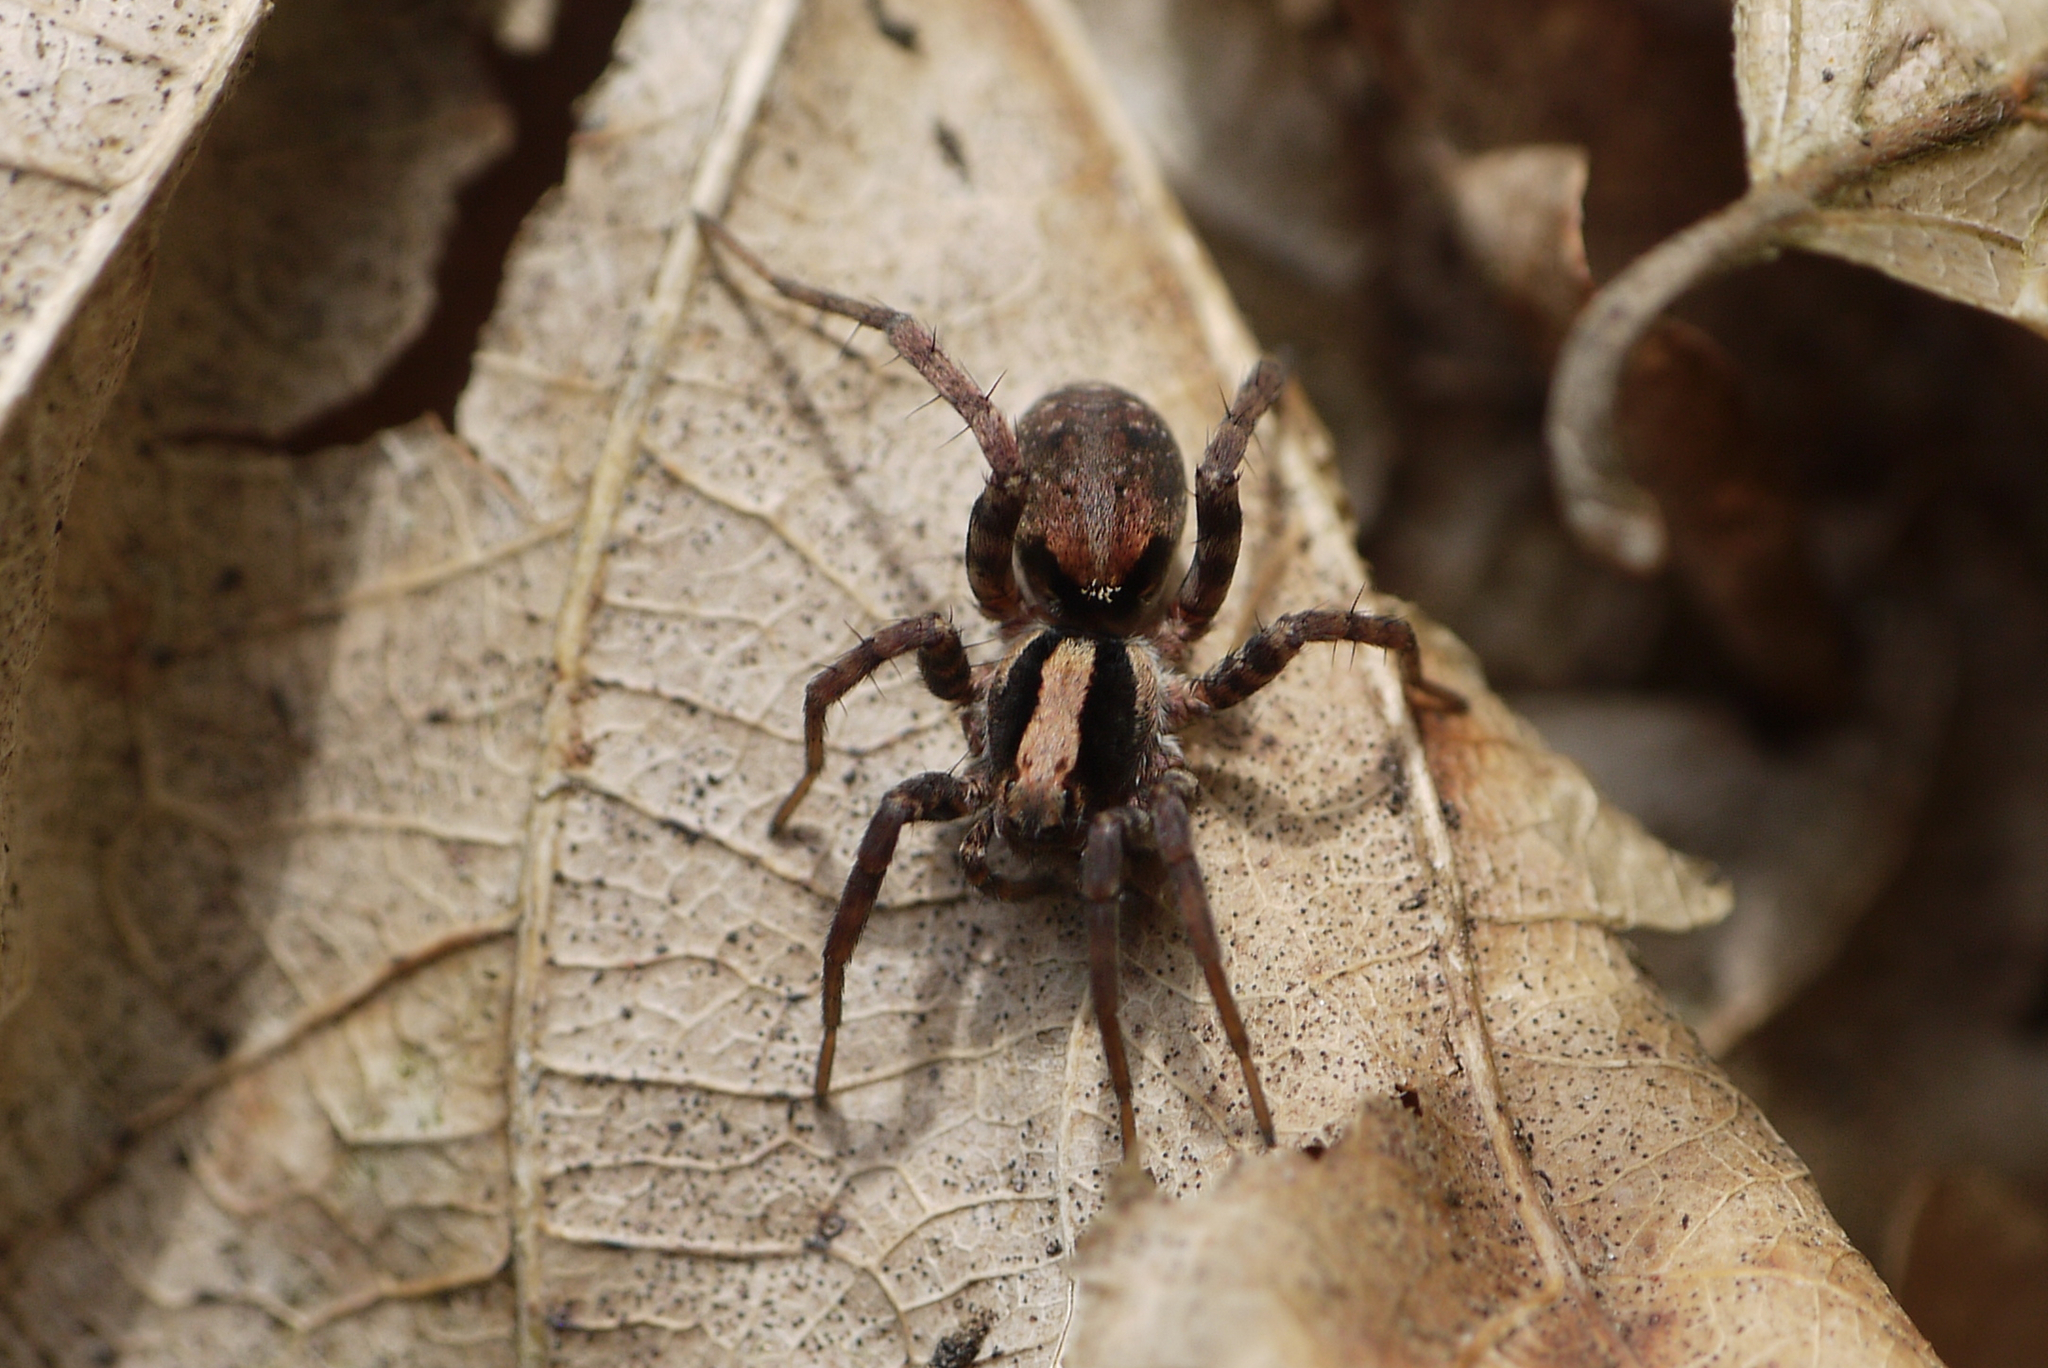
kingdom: Animalia
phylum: Arthropoda
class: Arachnida
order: Araneae
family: Lycosidae
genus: Xerolycosa
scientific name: Xerolycosa nemoralis
